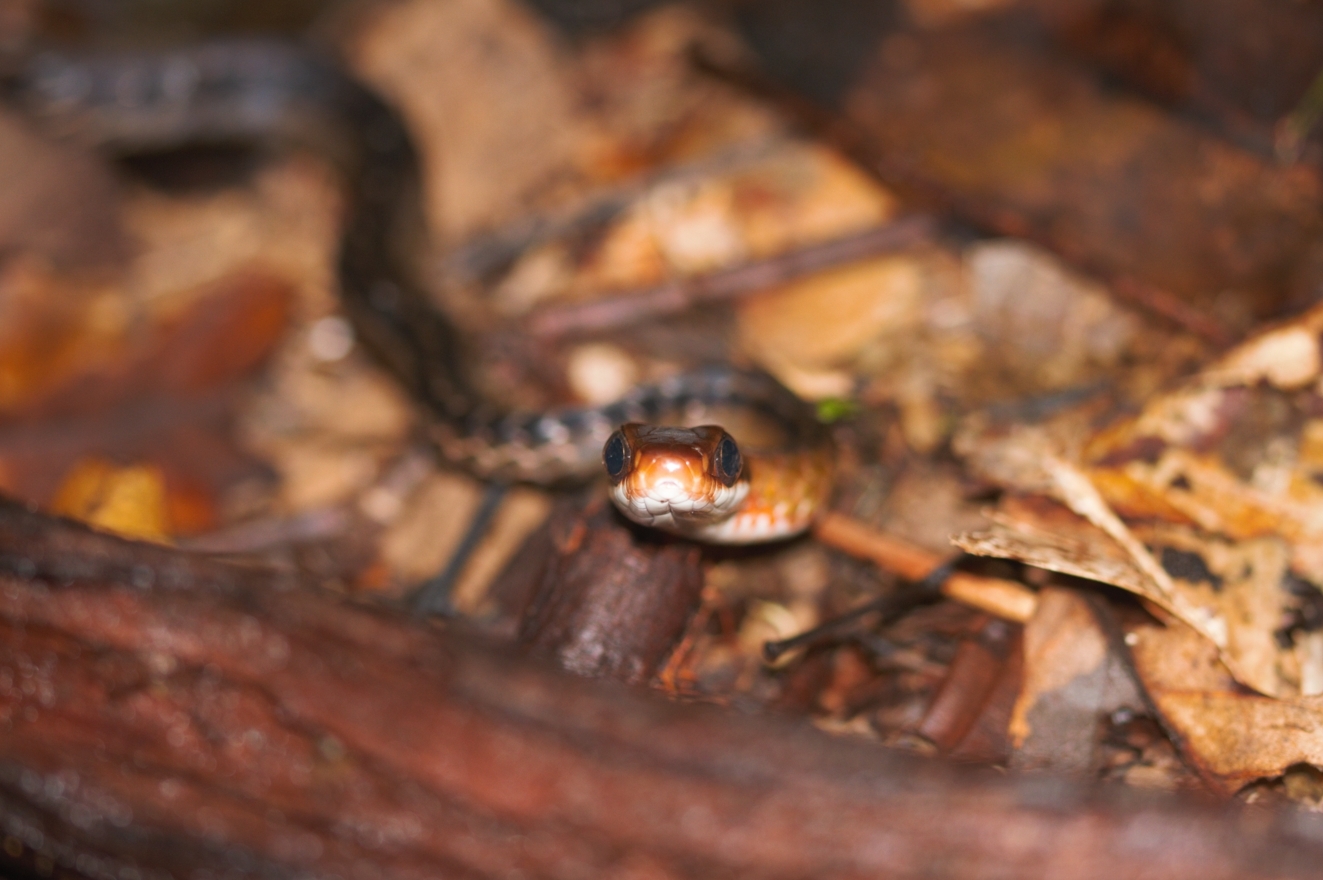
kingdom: Animalia
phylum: Chordata
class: Squamata
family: Colubridae
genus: Chironius
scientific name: Chironius fuscus
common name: Brown sipo
